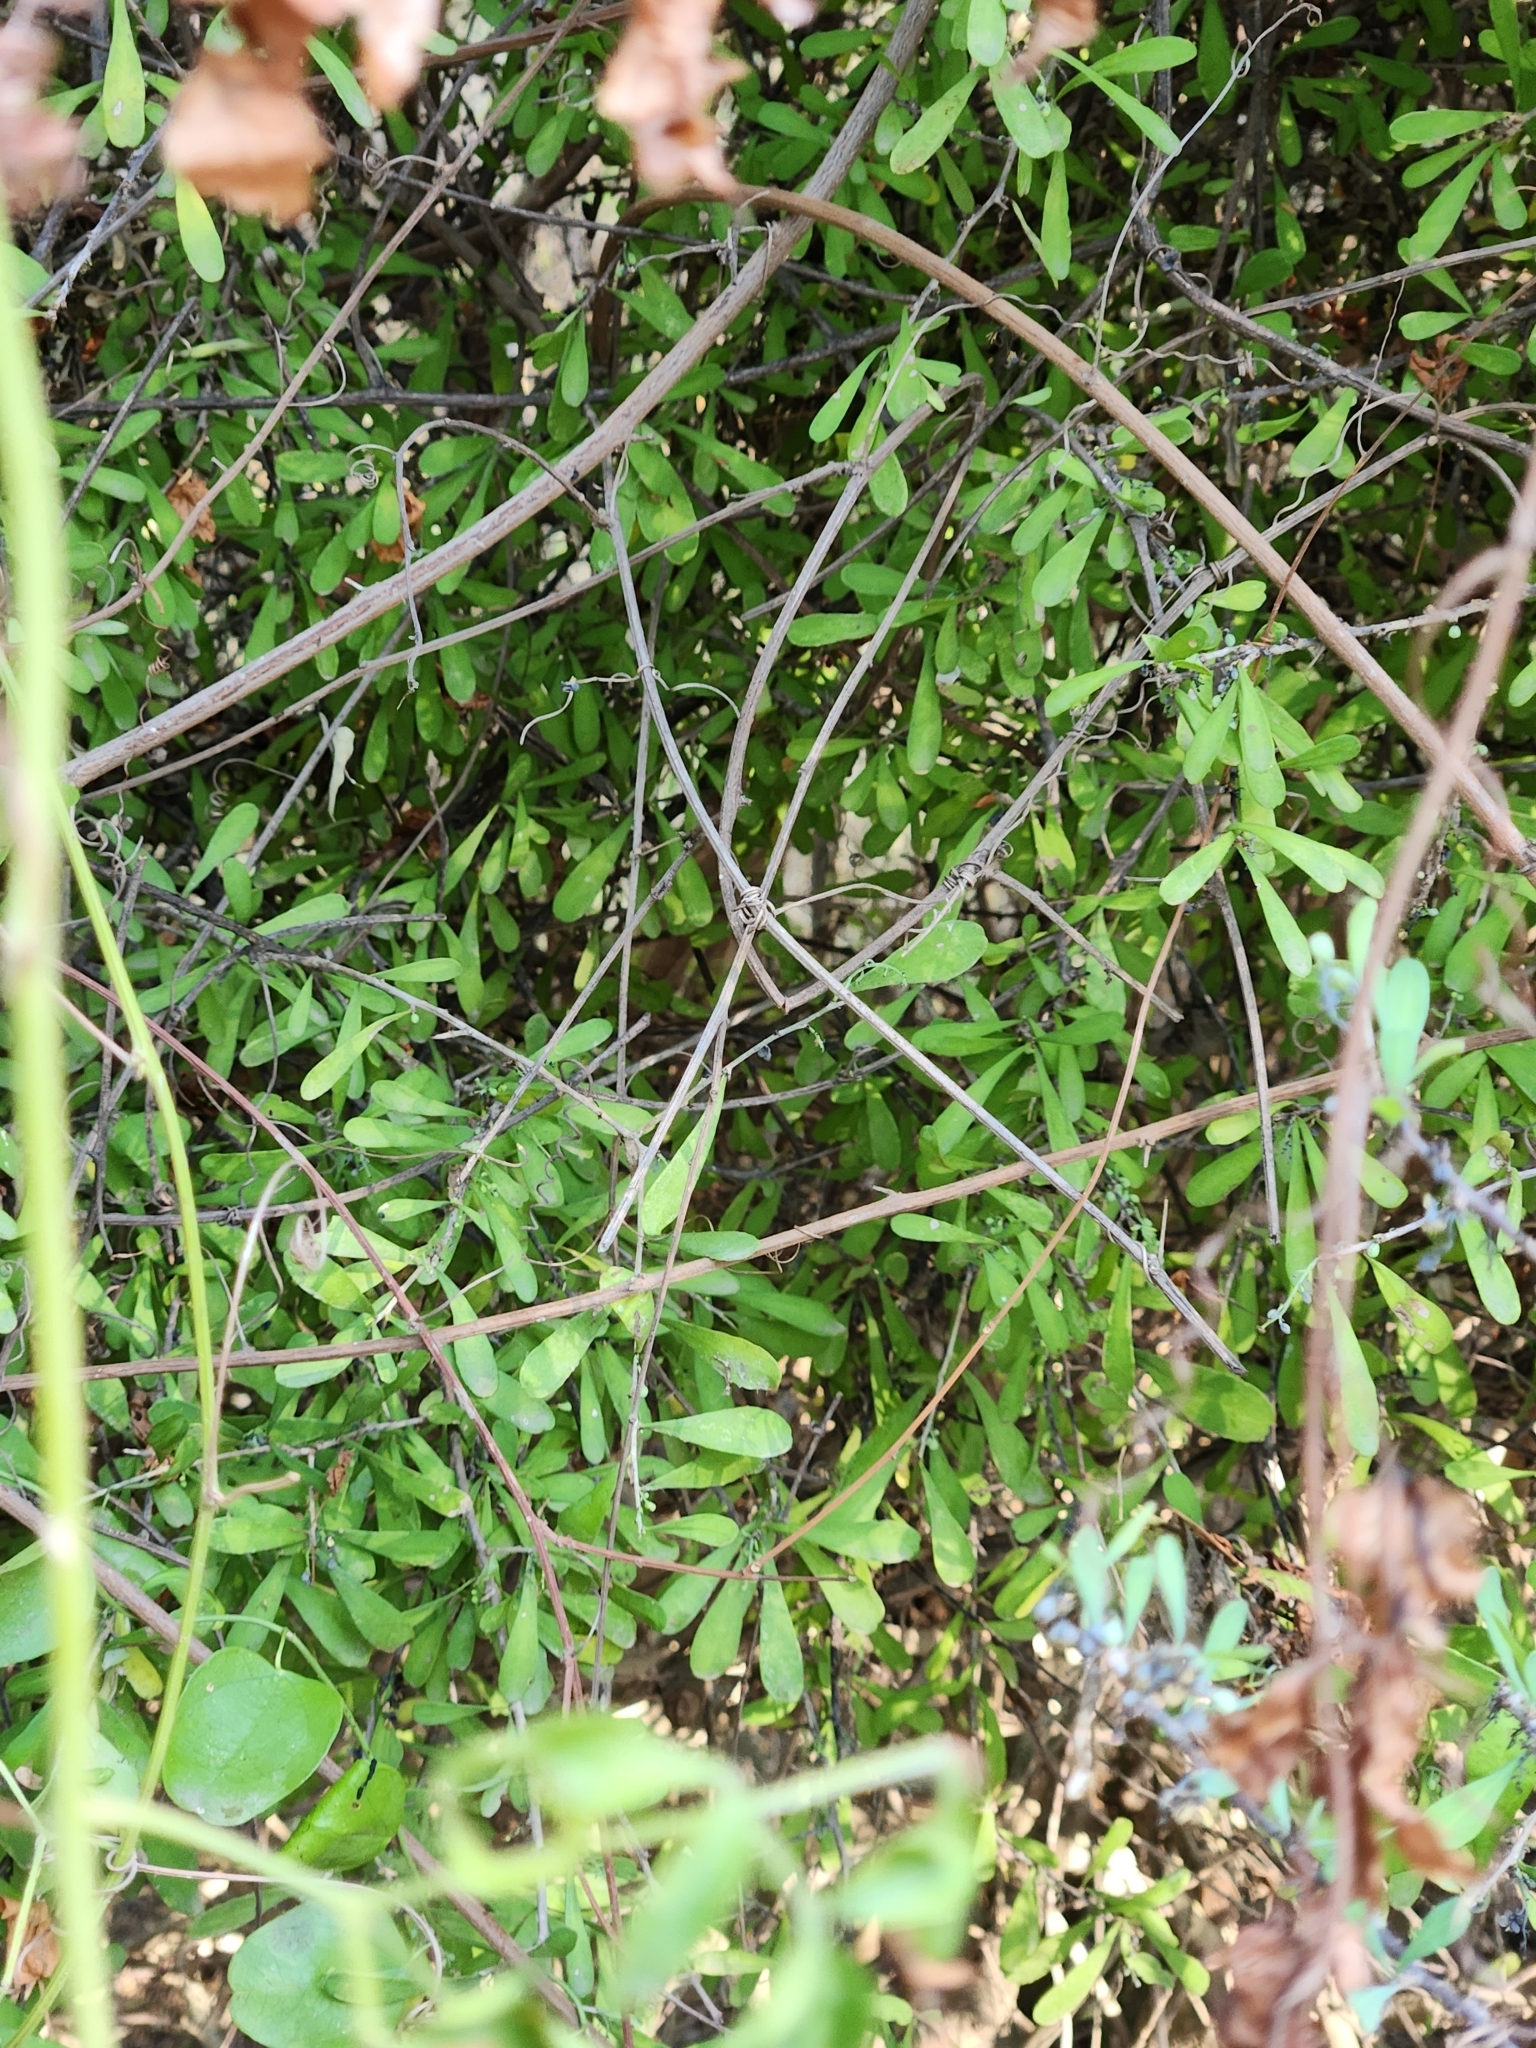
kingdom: Plantae
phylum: Tracheophyta
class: Magnoliopsida
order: Caryophyllales
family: Achatocarpaceae
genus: Phaulothamnus
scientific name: Phaulothamnus spinescens
